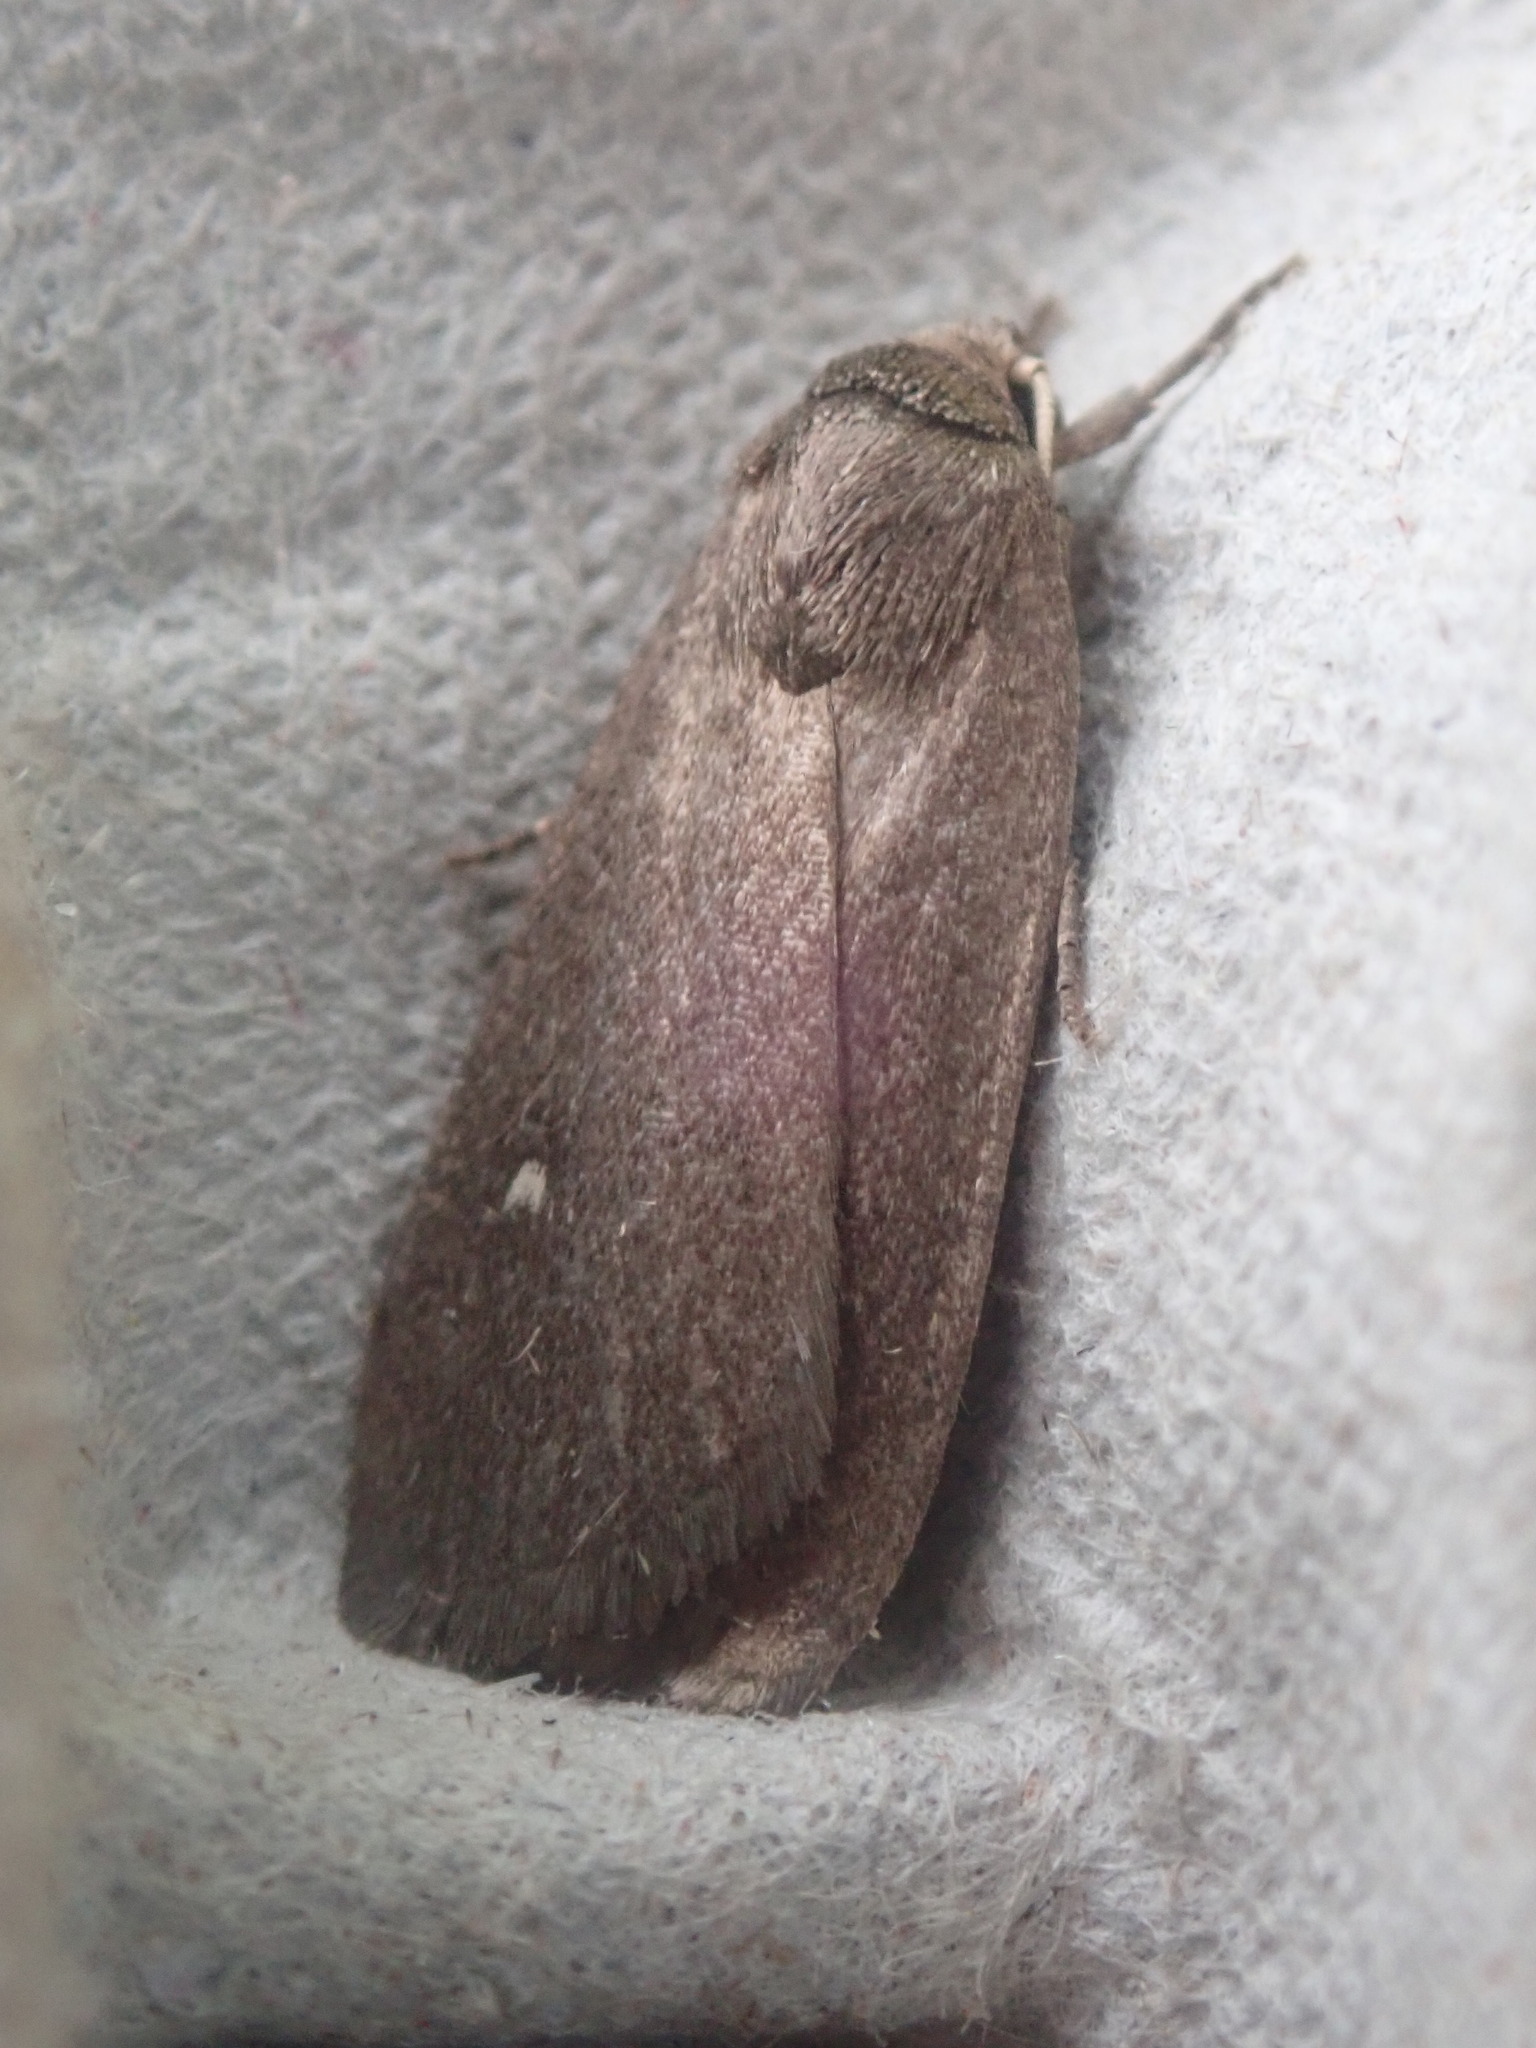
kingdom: Animalia
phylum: Arthropoda
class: Insecta
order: Lepidoptera
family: Noctuidae
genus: Proxenus
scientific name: Proxenus miranda
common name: Miranda moth
